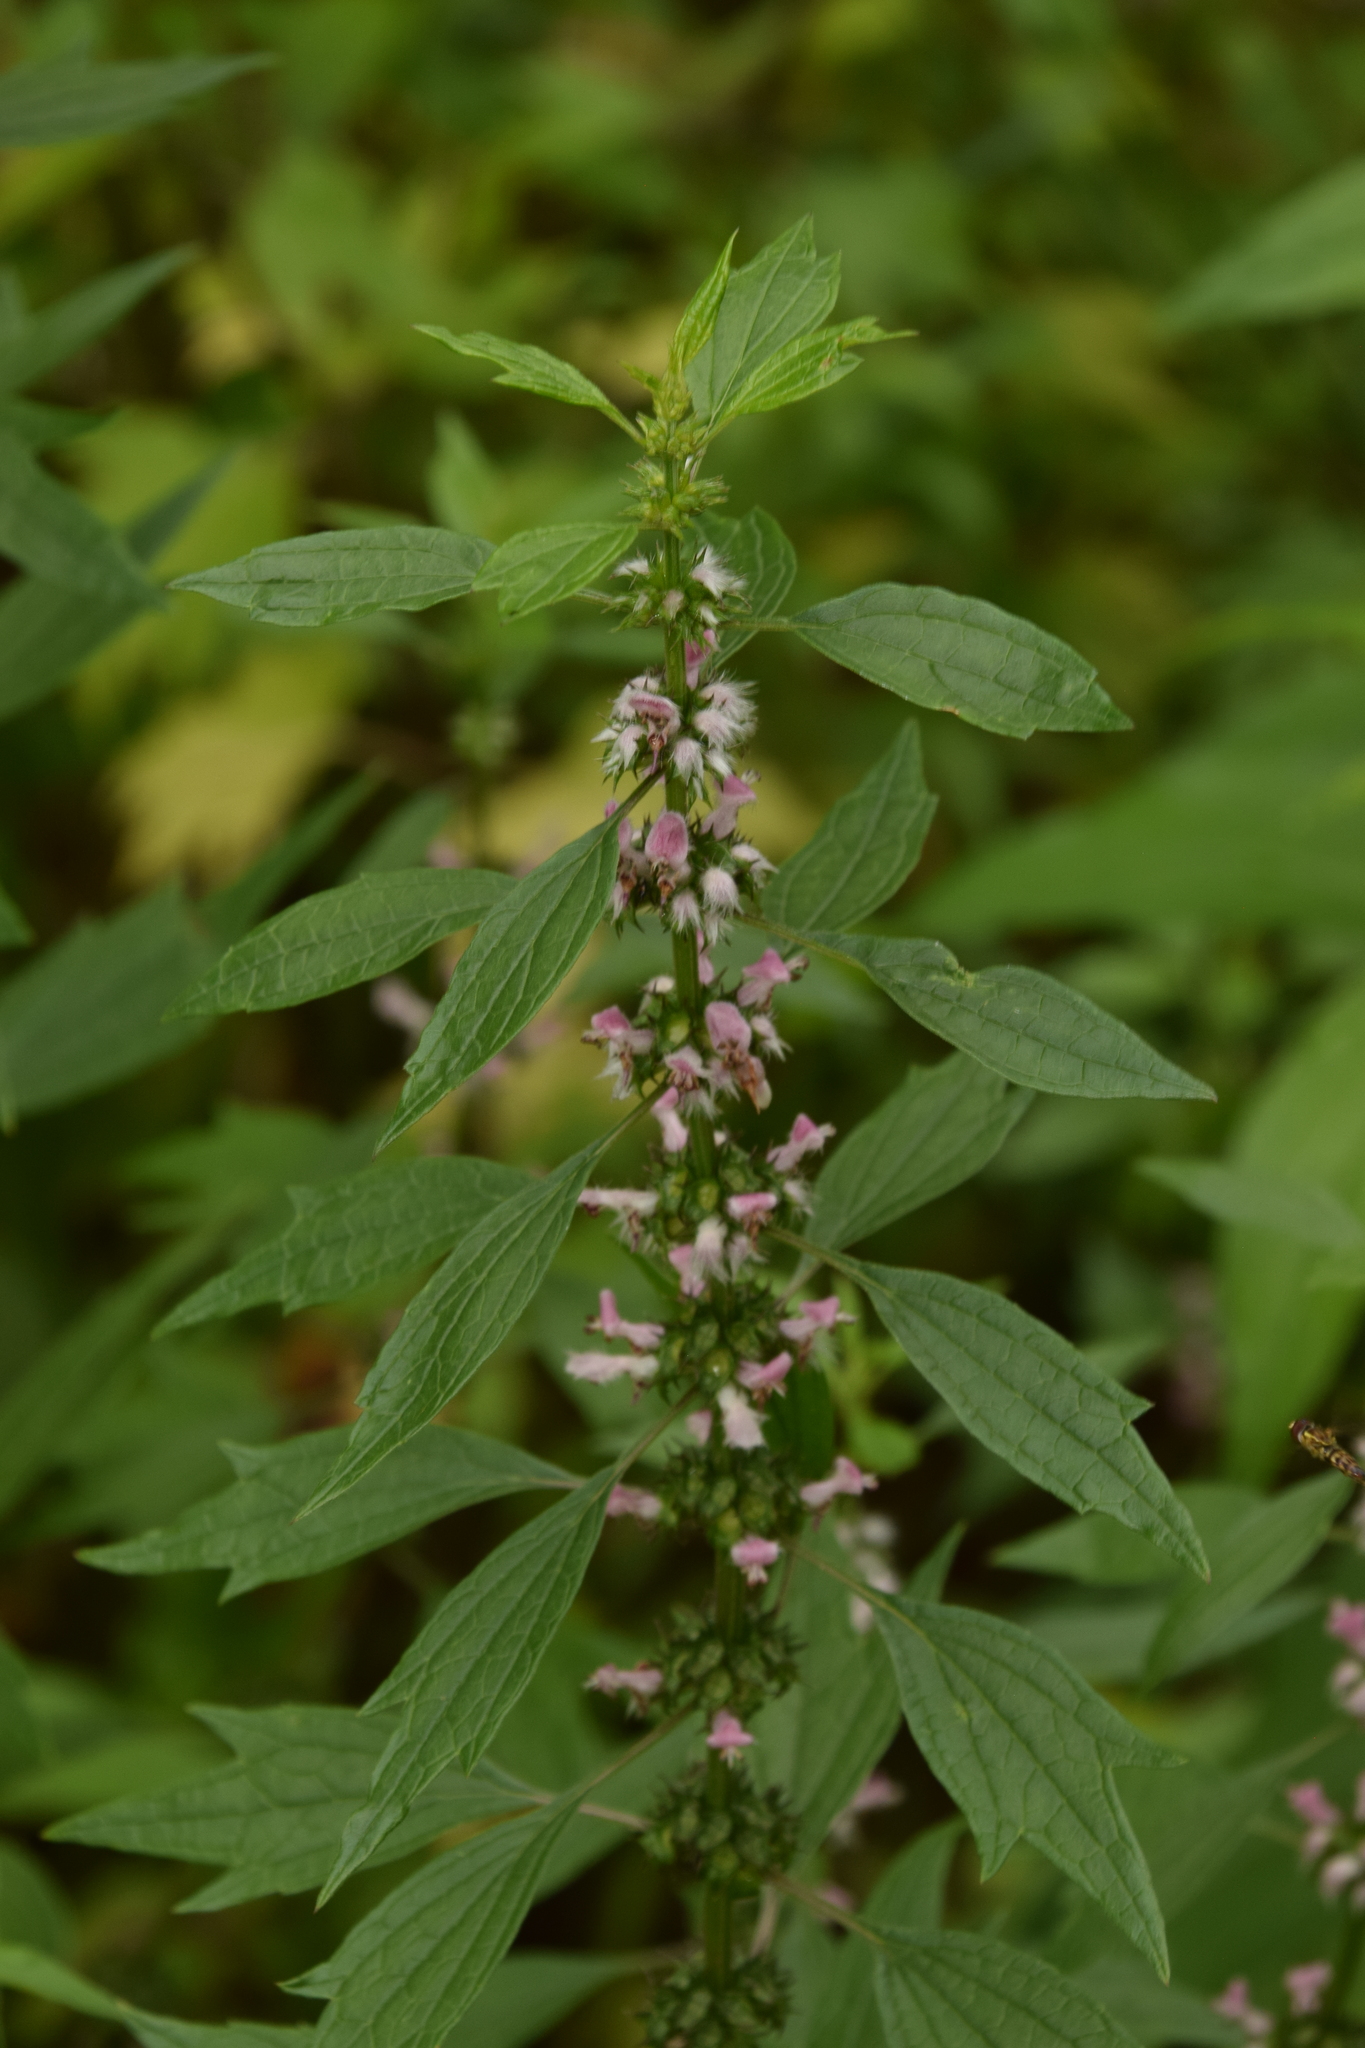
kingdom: Plantae
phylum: Tracheophyta
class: Magnoliopsida
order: Lamiales
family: Lamiaceae
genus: Leonurus
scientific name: Leonurus cardiaca
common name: Motherwort
